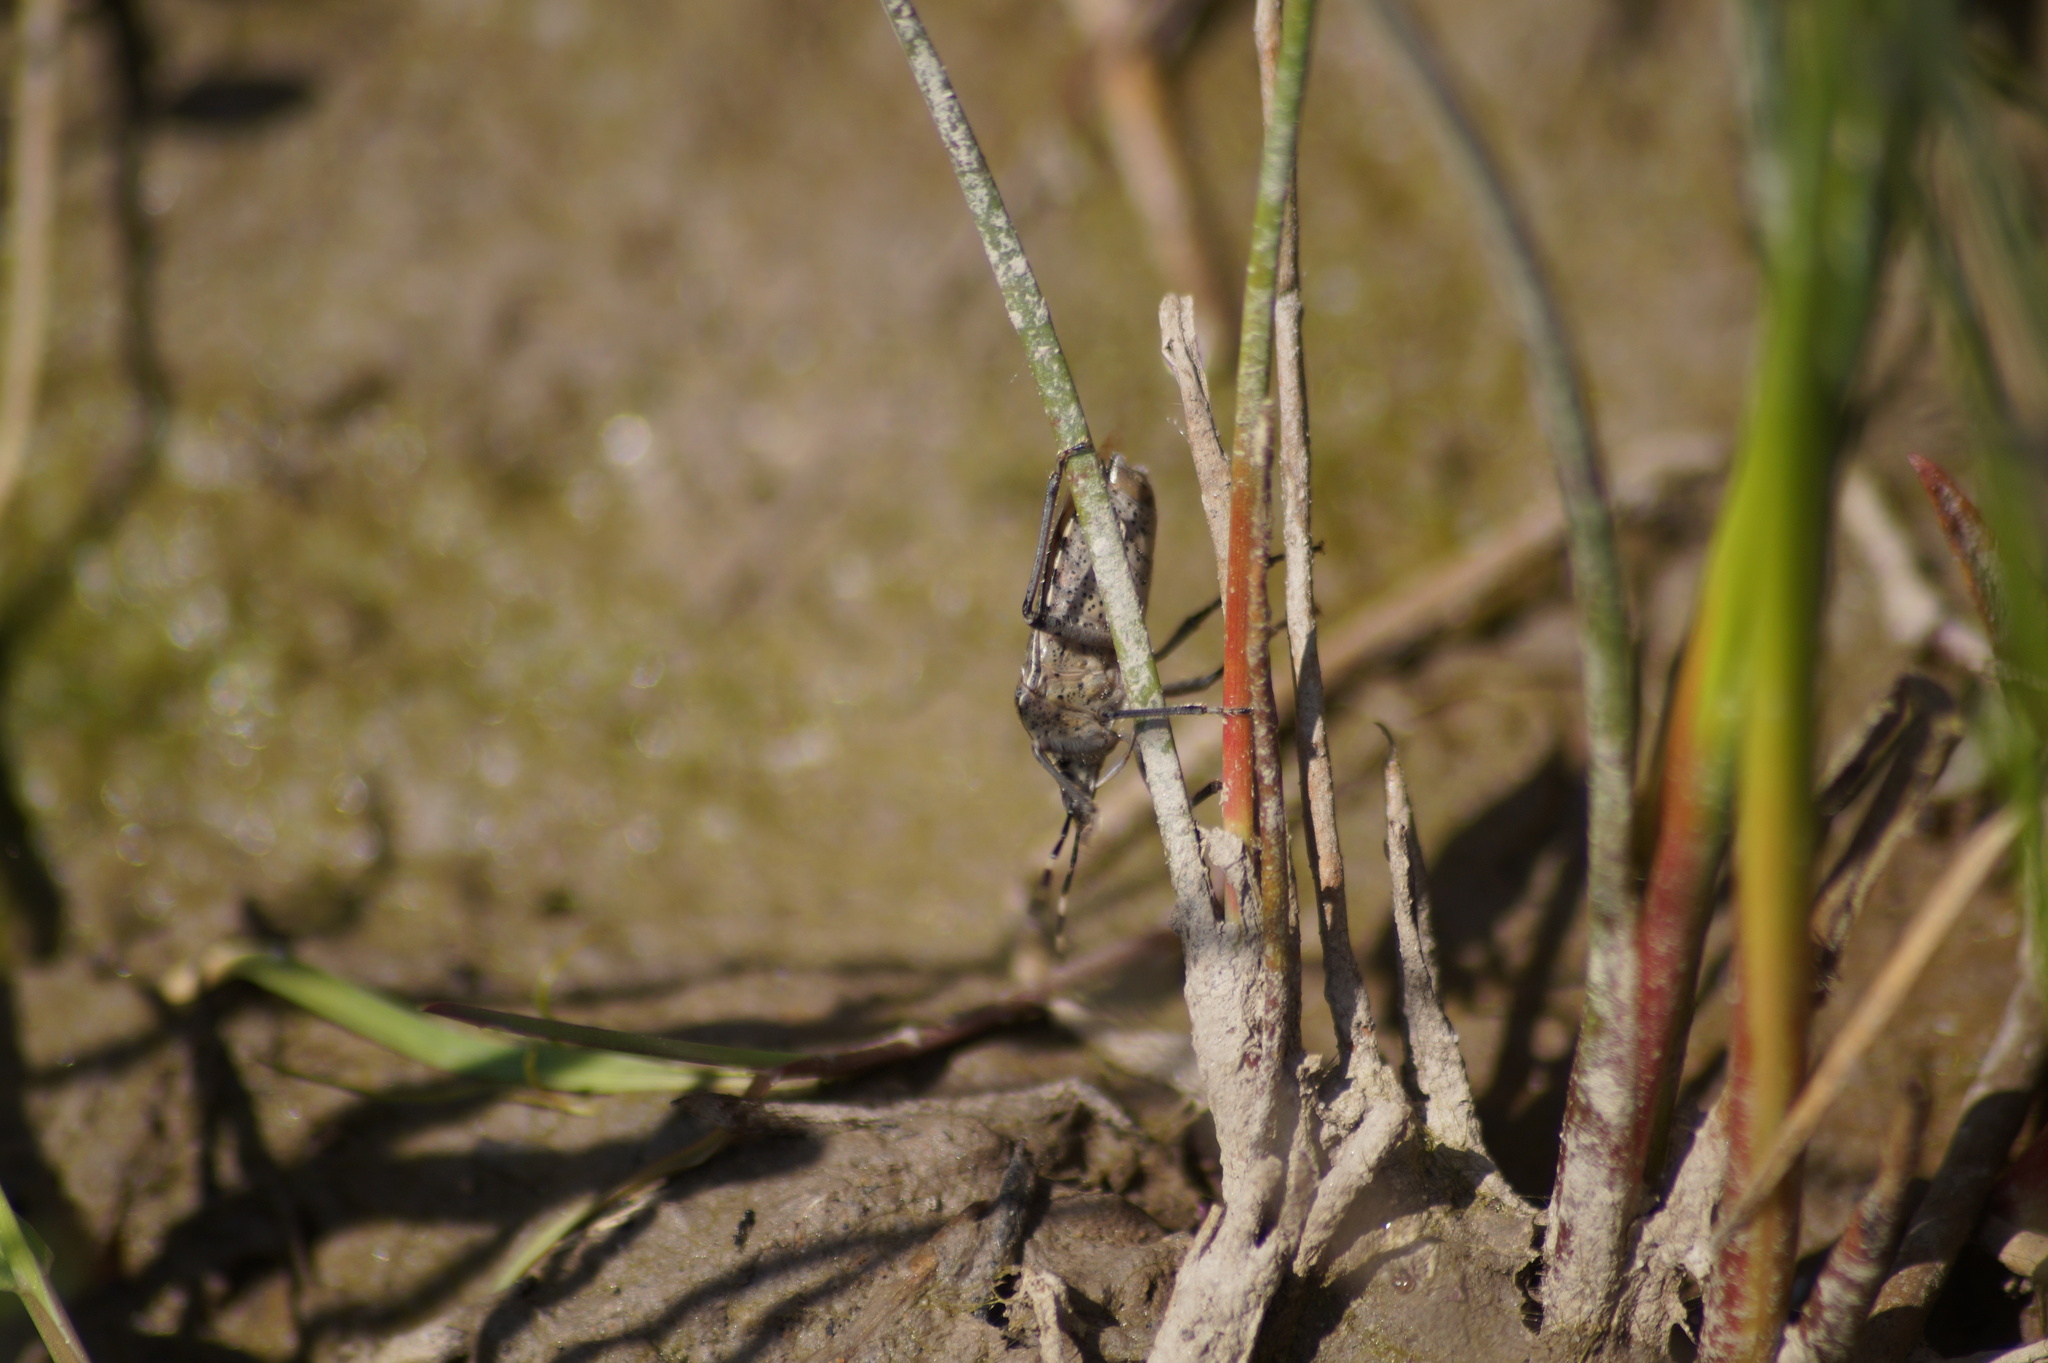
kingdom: Animalia
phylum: Arthropoda
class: Insecta
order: Hemiptera
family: Pentatomidae
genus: Rhaphigaster
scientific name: Rhaphigaster nebulosa
